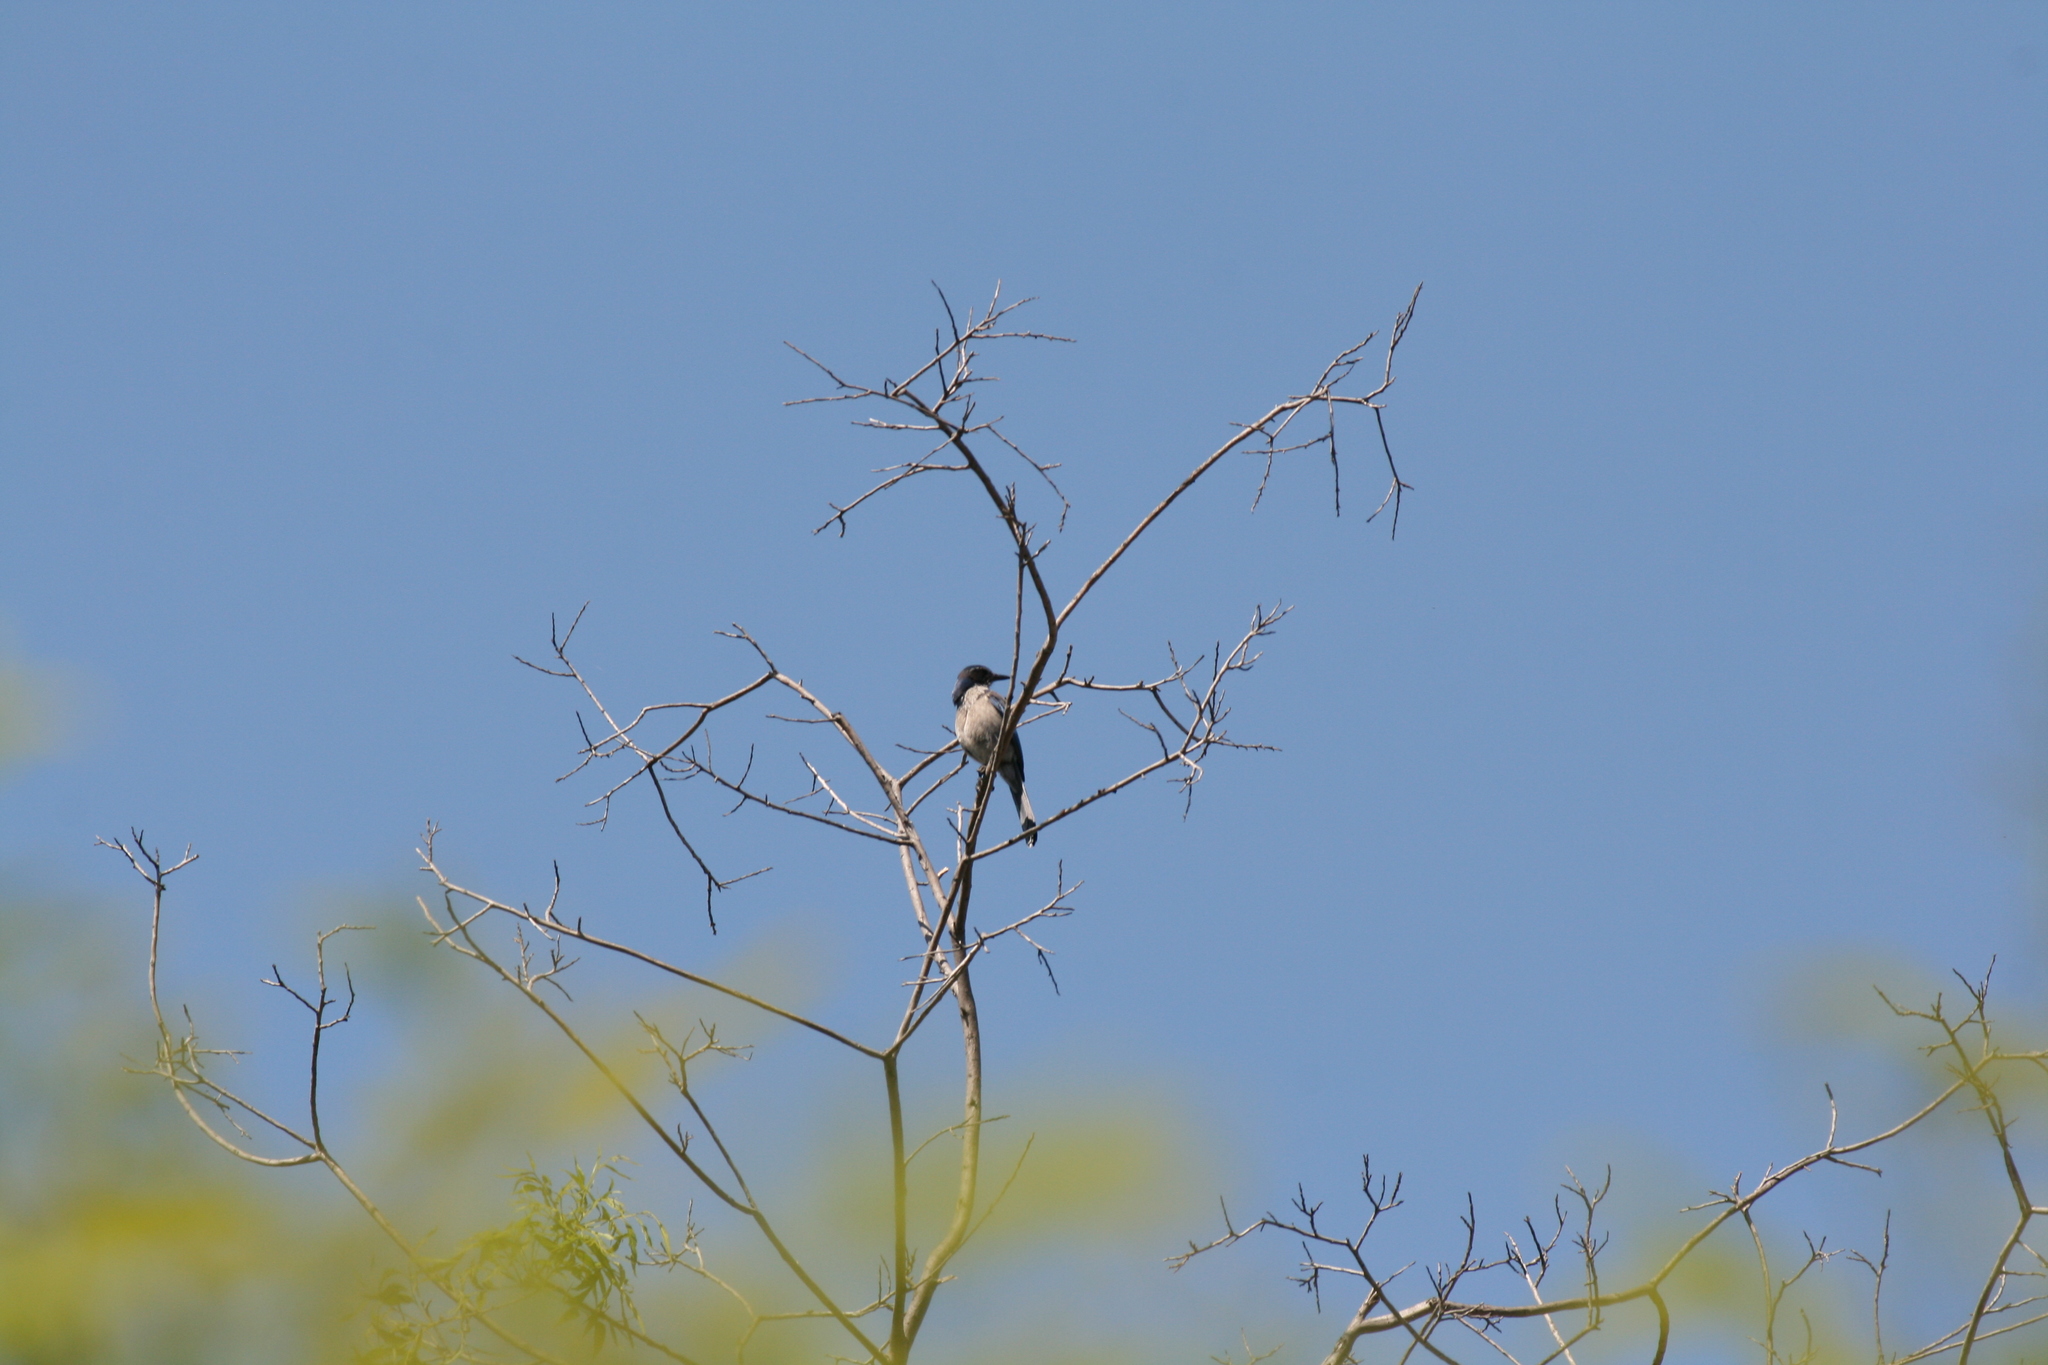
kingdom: Animalia
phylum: Chordata
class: Aves
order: Passeriformes
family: Corvidae
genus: Aphelocoma
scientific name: Aphelocoma californica
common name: California scrub-jay
